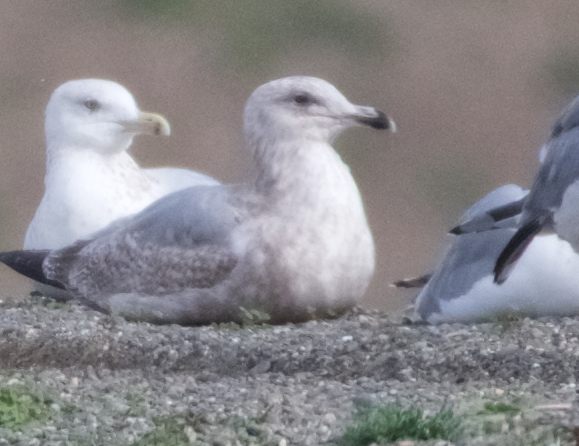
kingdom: Animalia
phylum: Chordata
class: Aves
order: Charadriiformes
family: Laridae
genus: Larus
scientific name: Larus argentatus
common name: Herring gull
